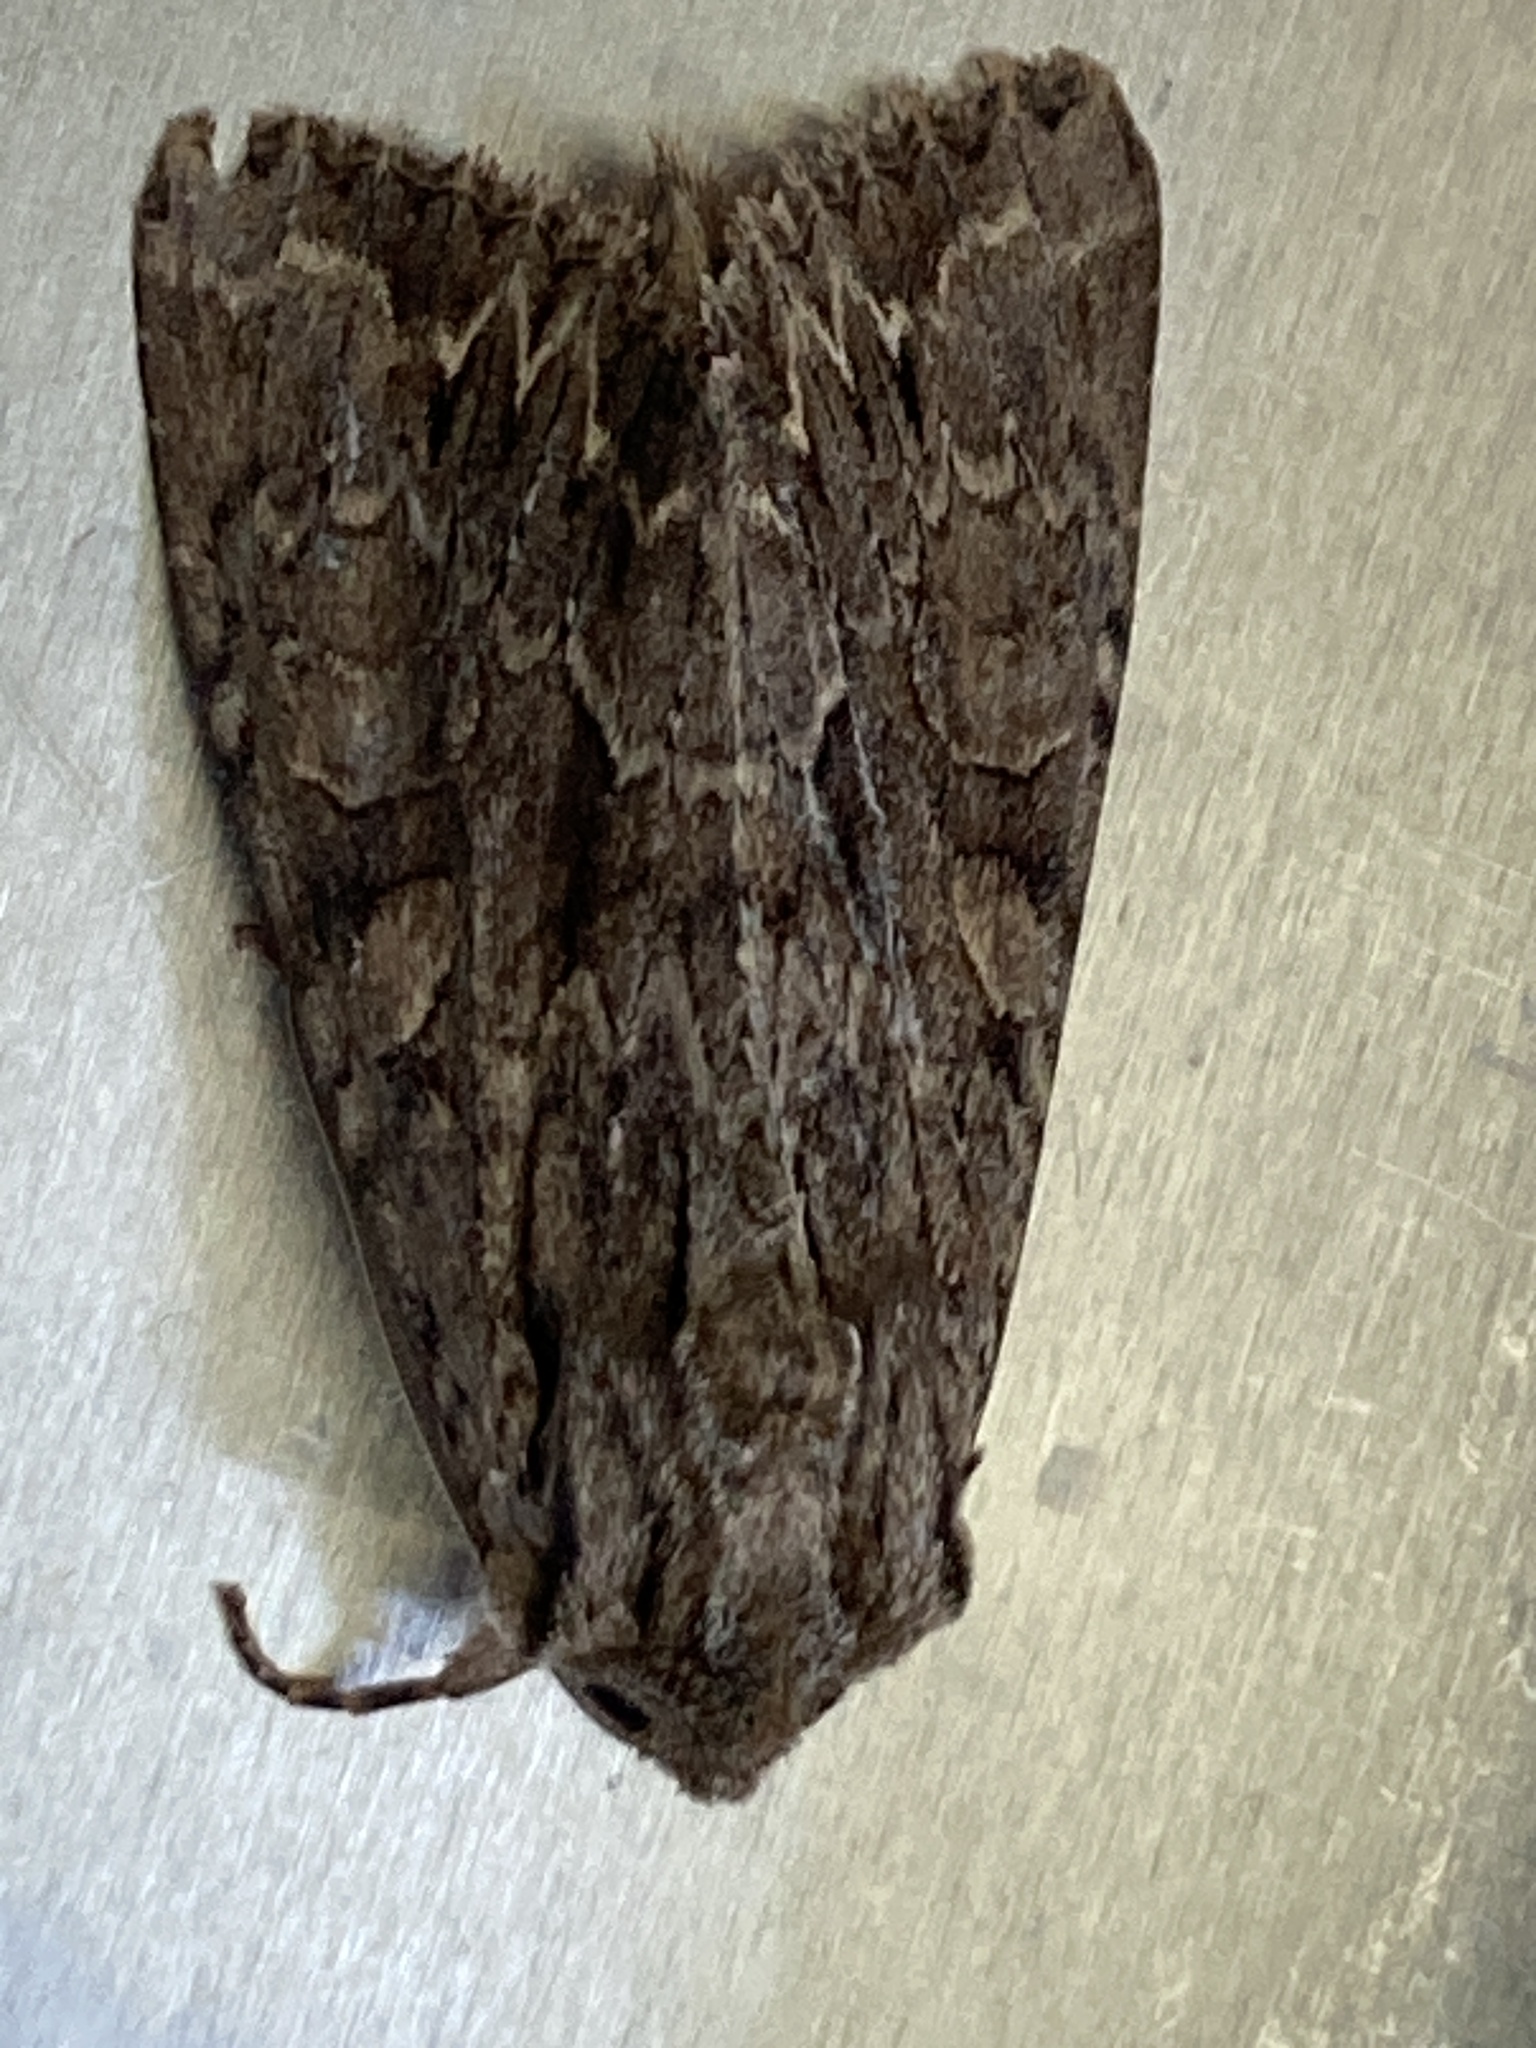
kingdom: Animalia
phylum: Arthropoda
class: Insecta
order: Lepidoptera
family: Noctuidae
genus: Apamea
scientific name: Apamea monoglypha
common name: Dark arches
